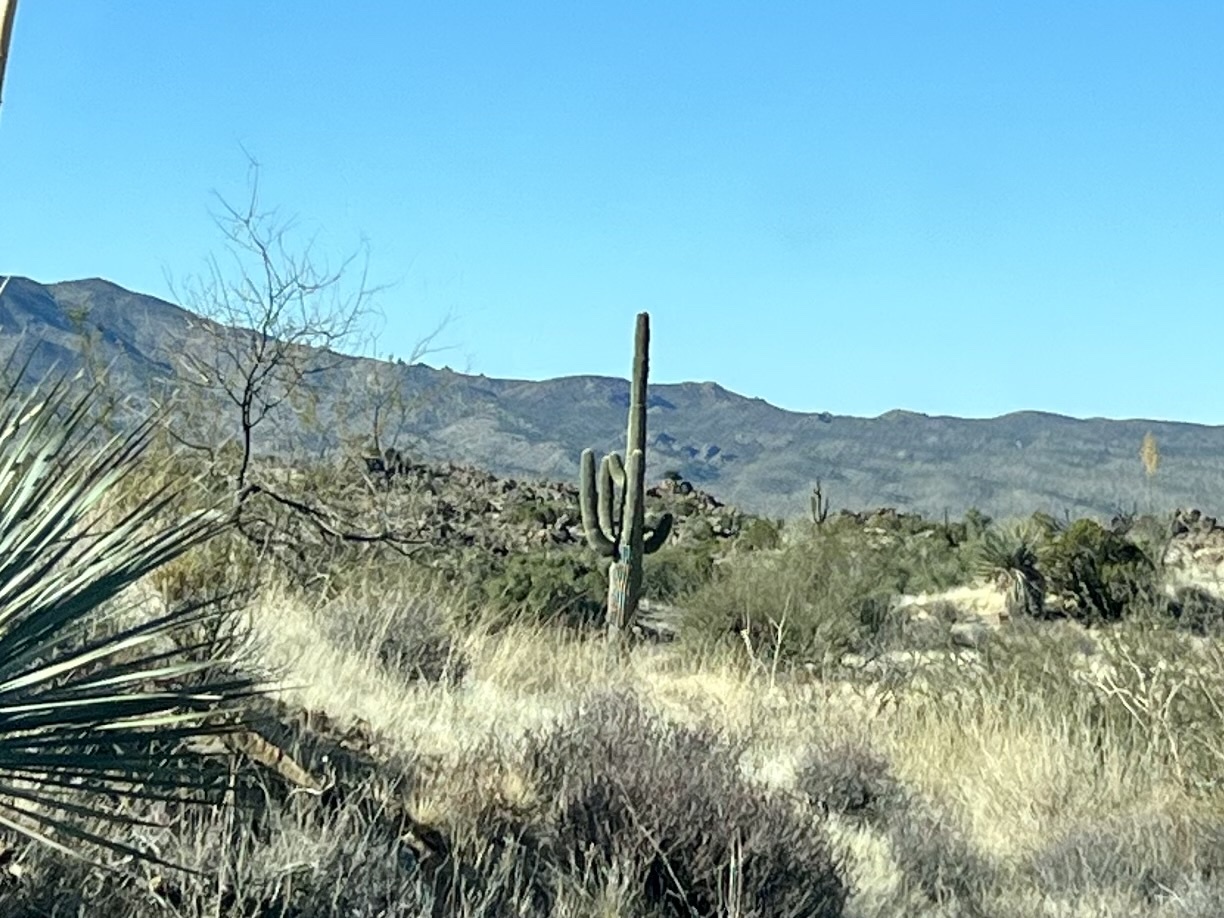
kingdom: Plantae
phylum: Tracheophyta
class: Magnoliopsida
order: Caryophyllales
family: Cactaceae
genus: Carnegiea
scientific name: Carnegiea gigantea
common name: Saguaro
